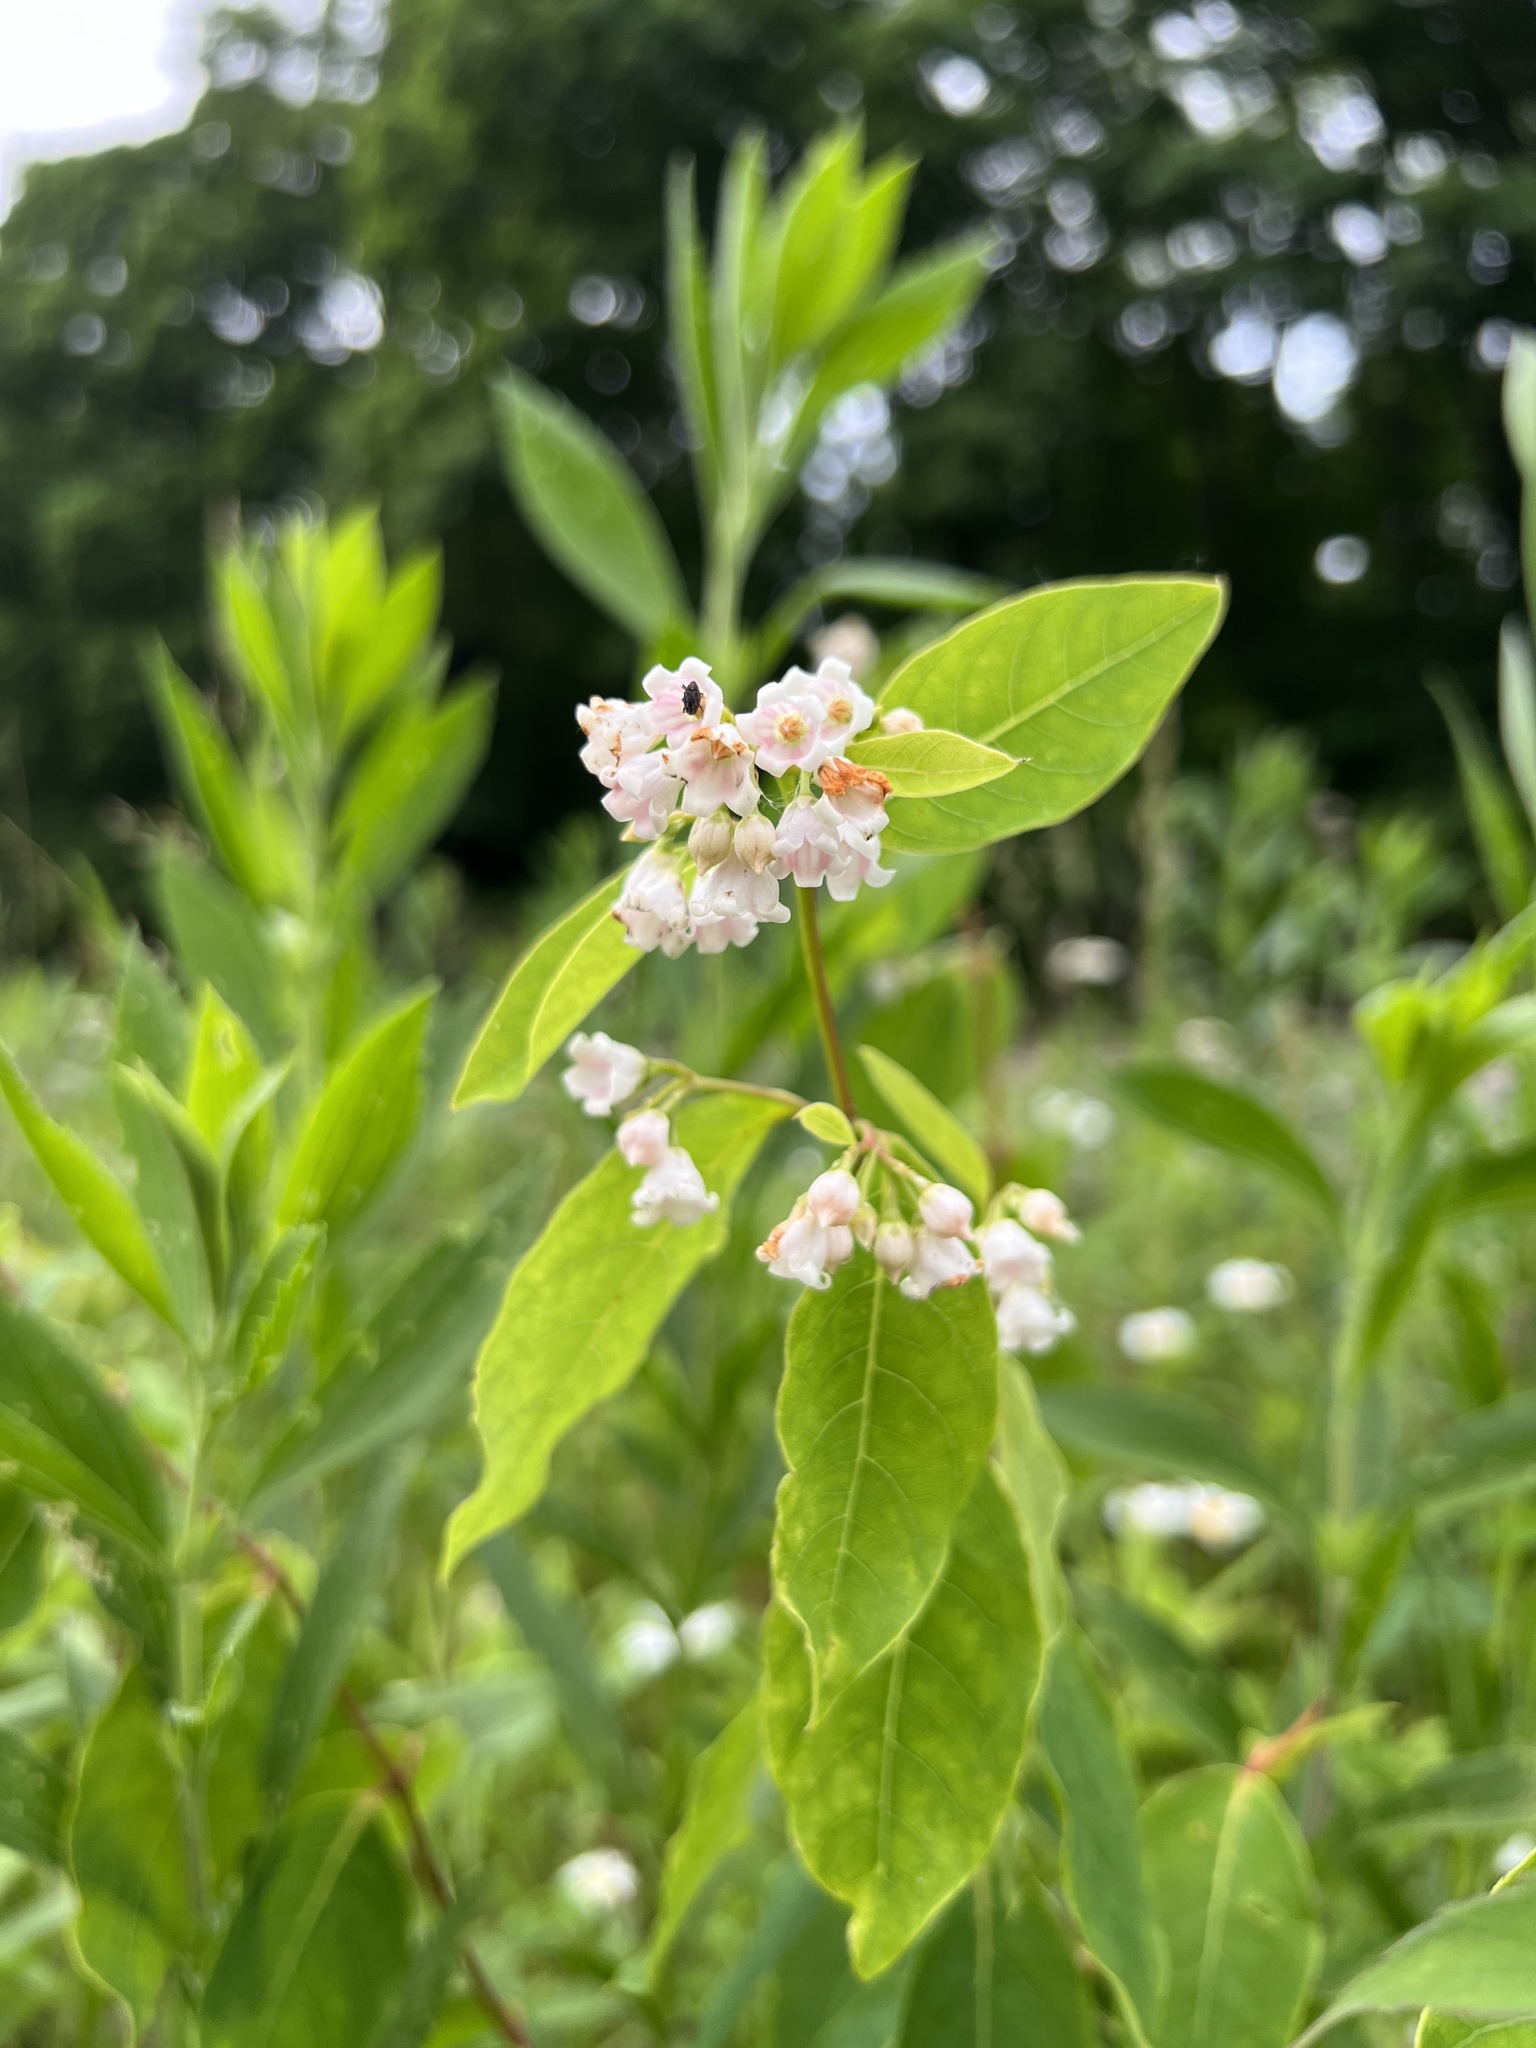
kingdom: Plantae
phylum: Tracheophyta
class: Magnoliopsida
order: Gentianales
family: Apocynaceae
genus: Apocynum
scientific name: Apocynum androsaemifolium
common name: Spreading dogbane
